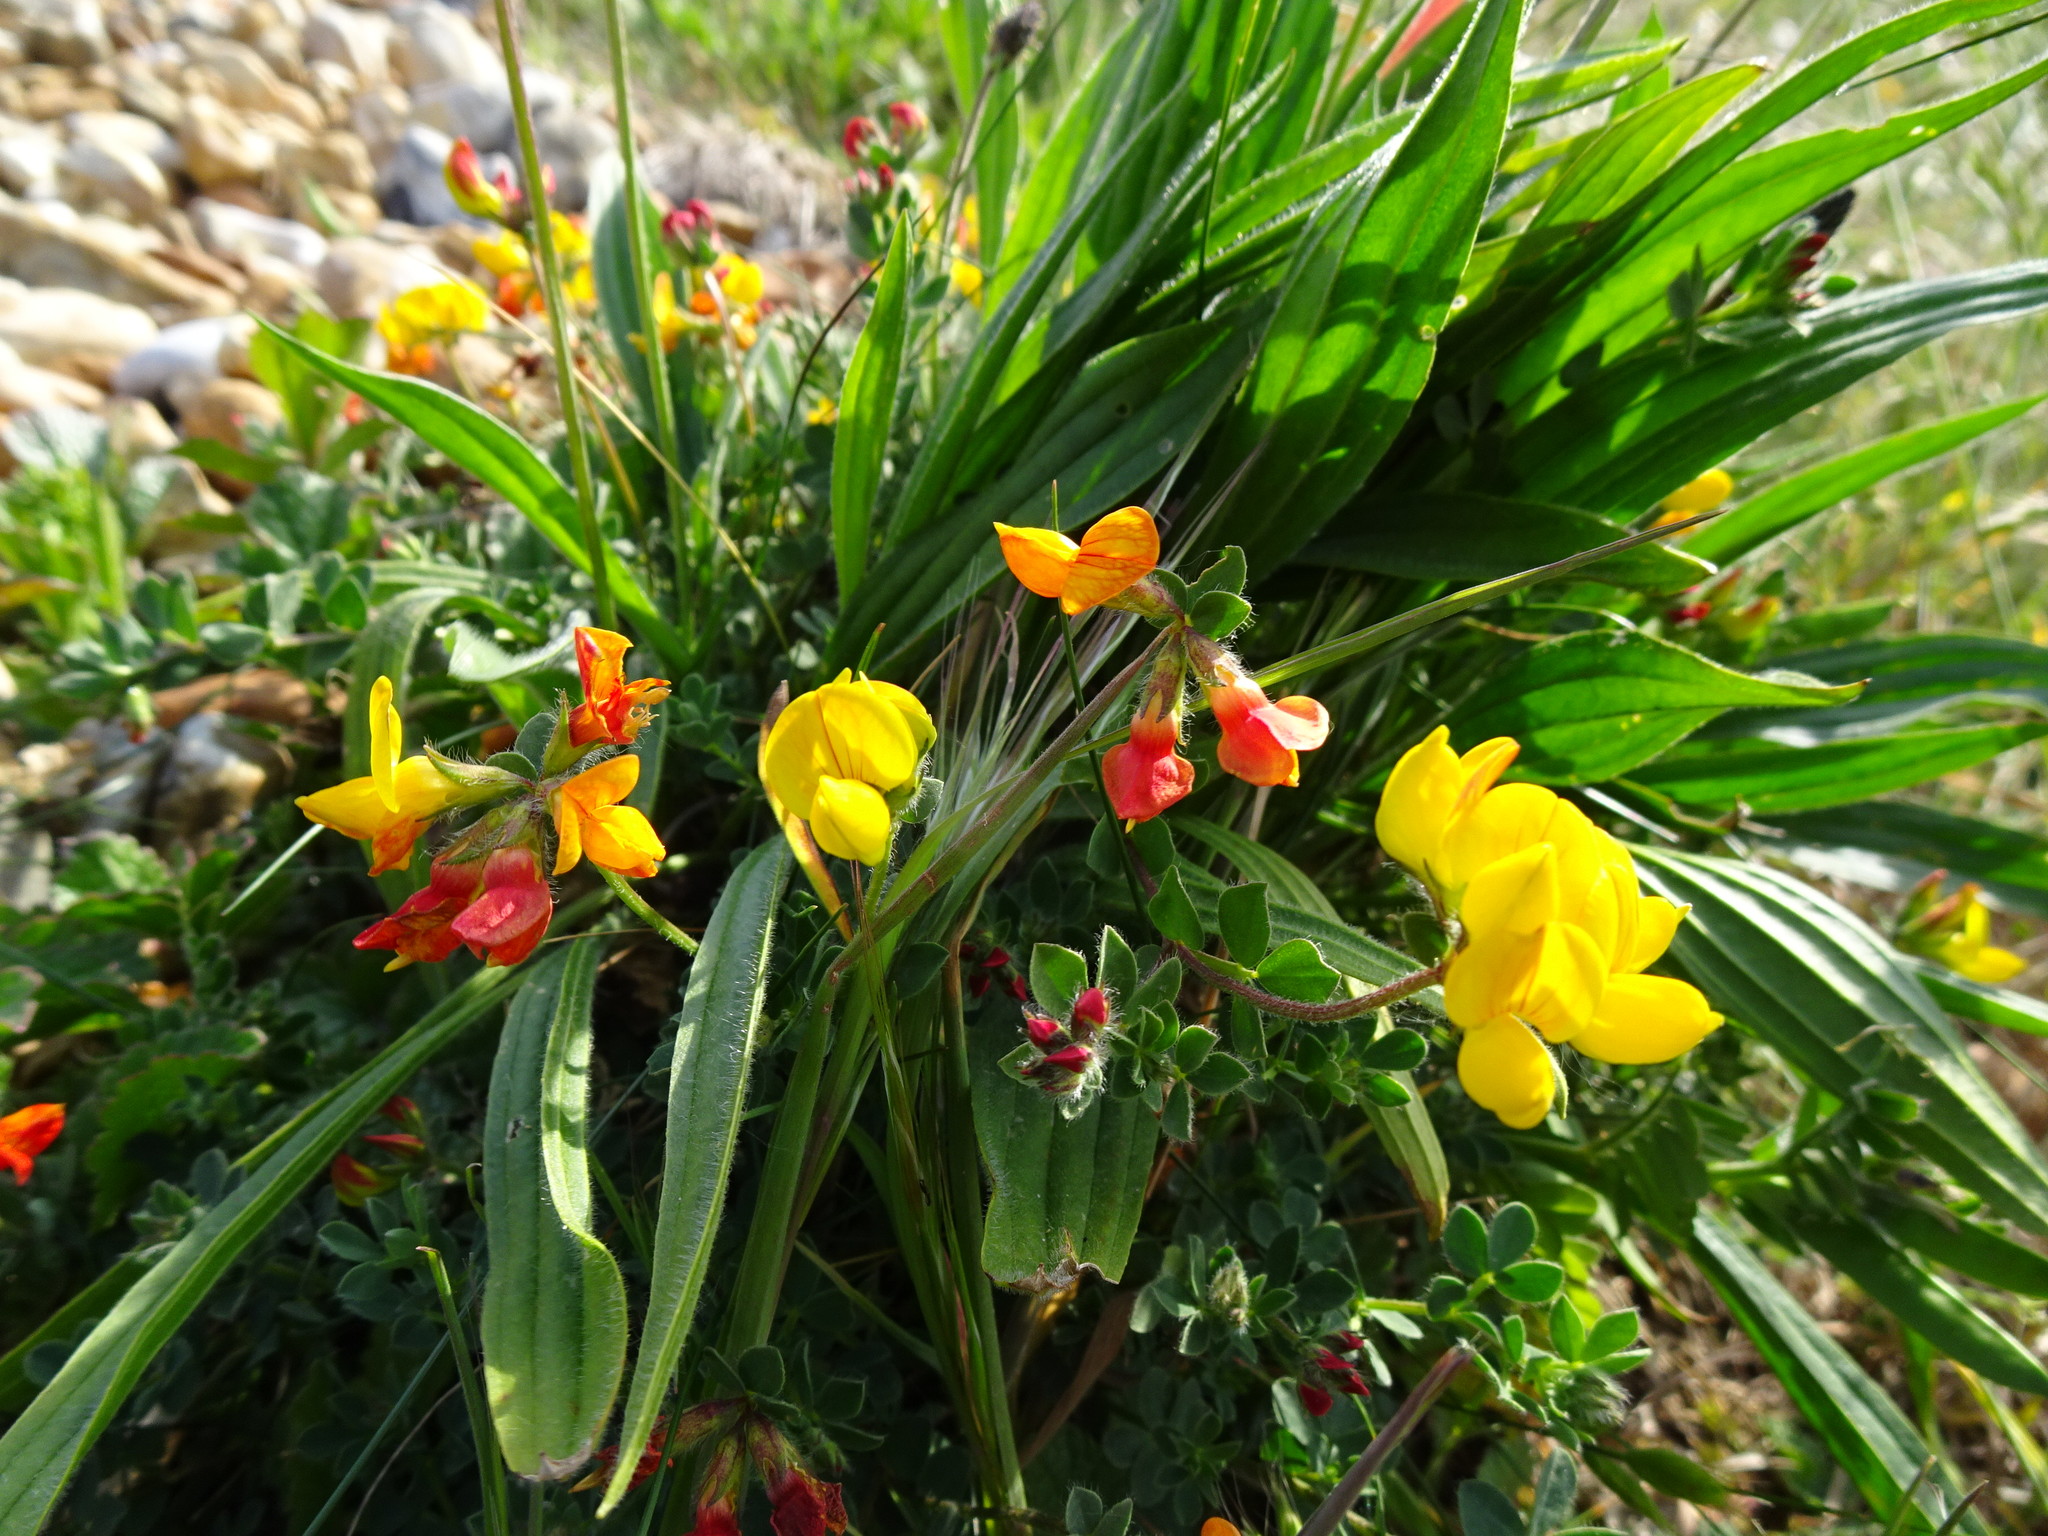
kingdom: Plantae
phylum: Tracheophyta
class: Magnoliopsida
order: Fabales
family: Fabaceae
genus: Lotus
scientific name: Lotus corniculatus
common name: Common bird's-foot-trefoil
